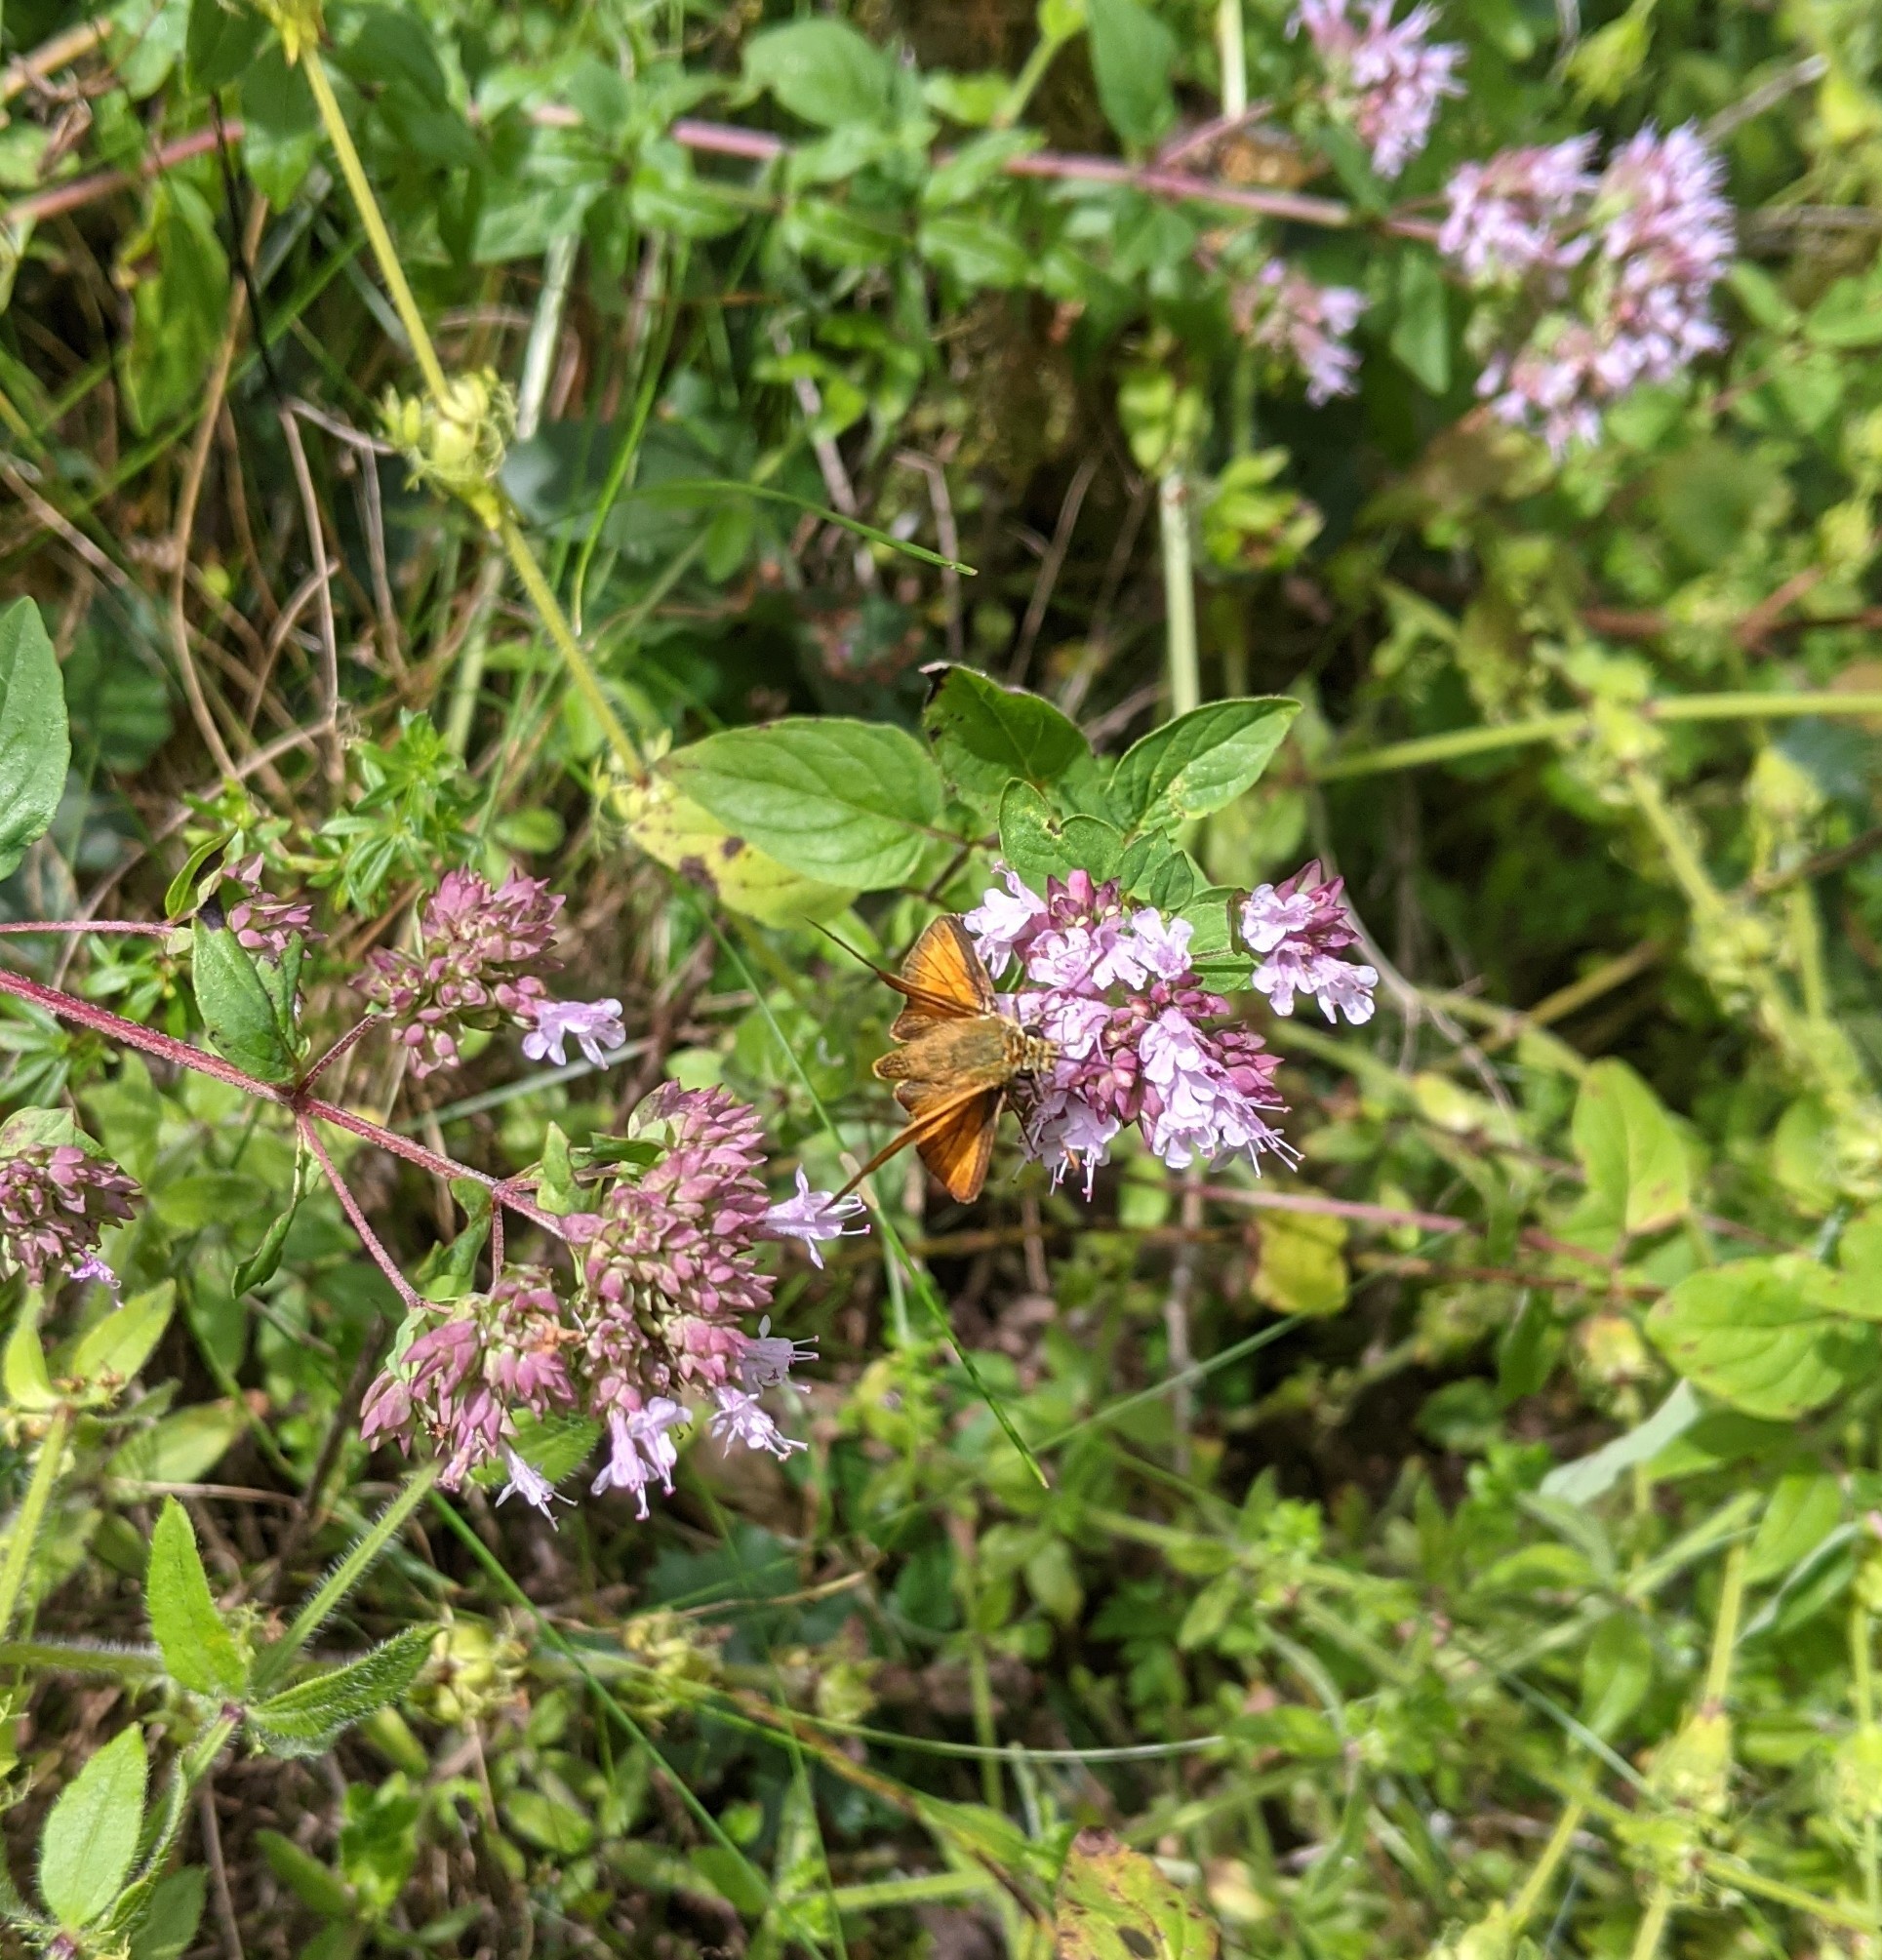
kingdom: Animalia
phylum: Arthropoda
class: Insecta
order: Lepidoptera
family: Hesperiidae
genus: Ochlodes
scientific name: Ochlodes venata
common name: Large skipper
